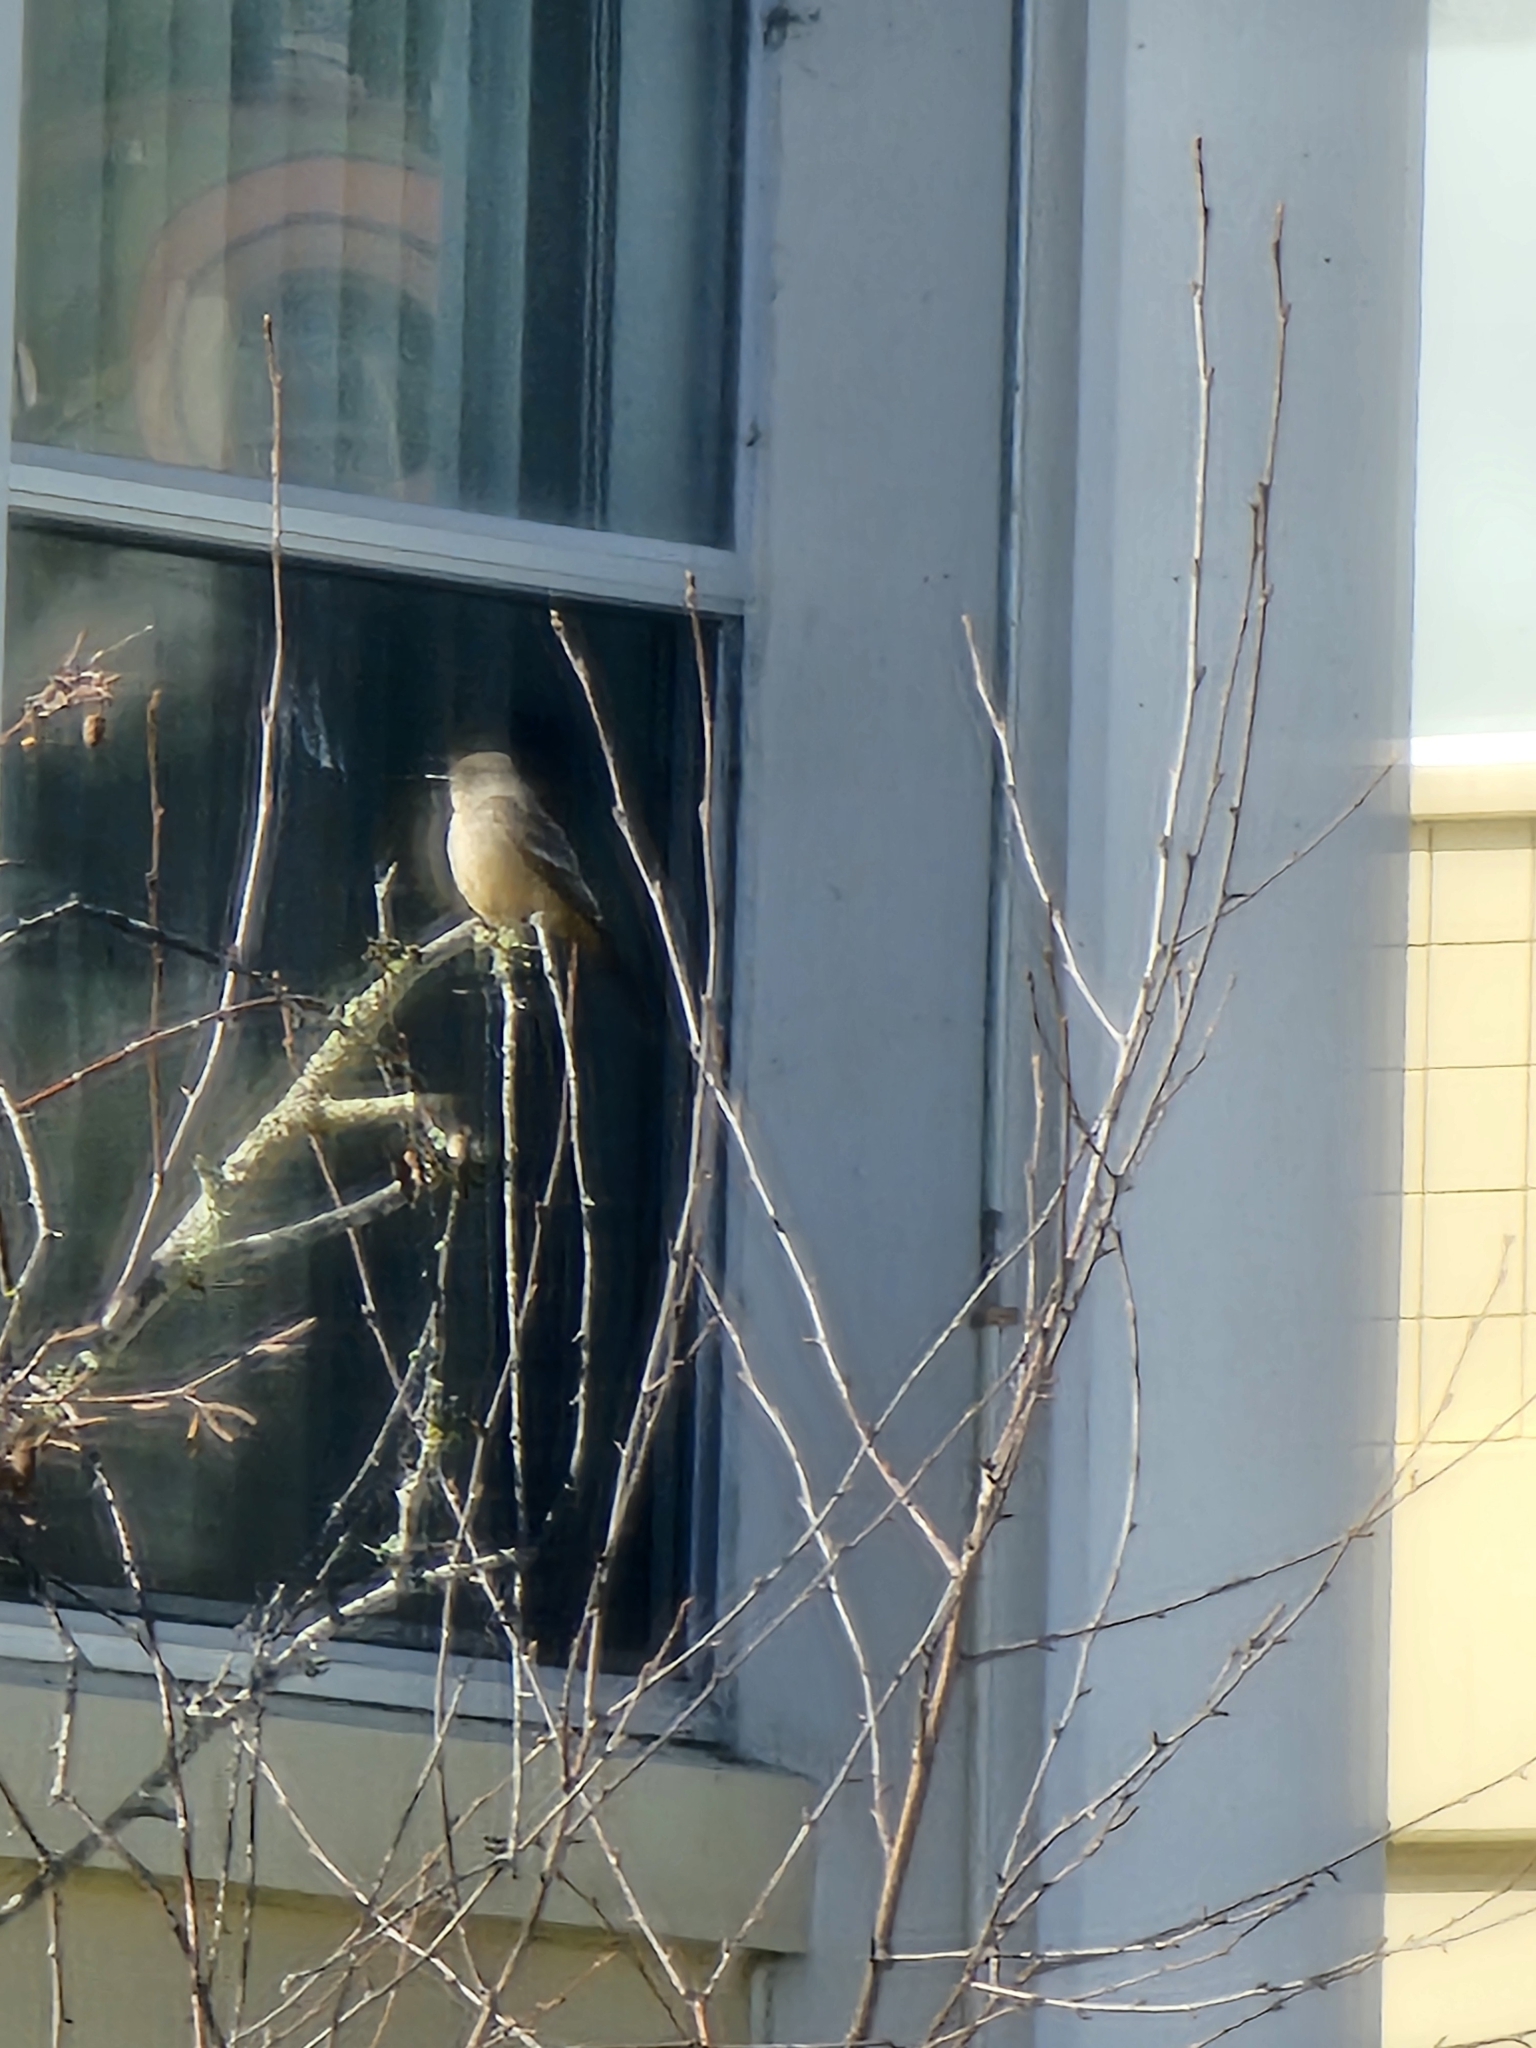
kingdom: Animalia
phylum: Chordata
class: Aves
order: Passeriformes
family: Tyrannidae
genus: Sayornis
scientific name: Sayornis saya
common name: Say's phoebe
